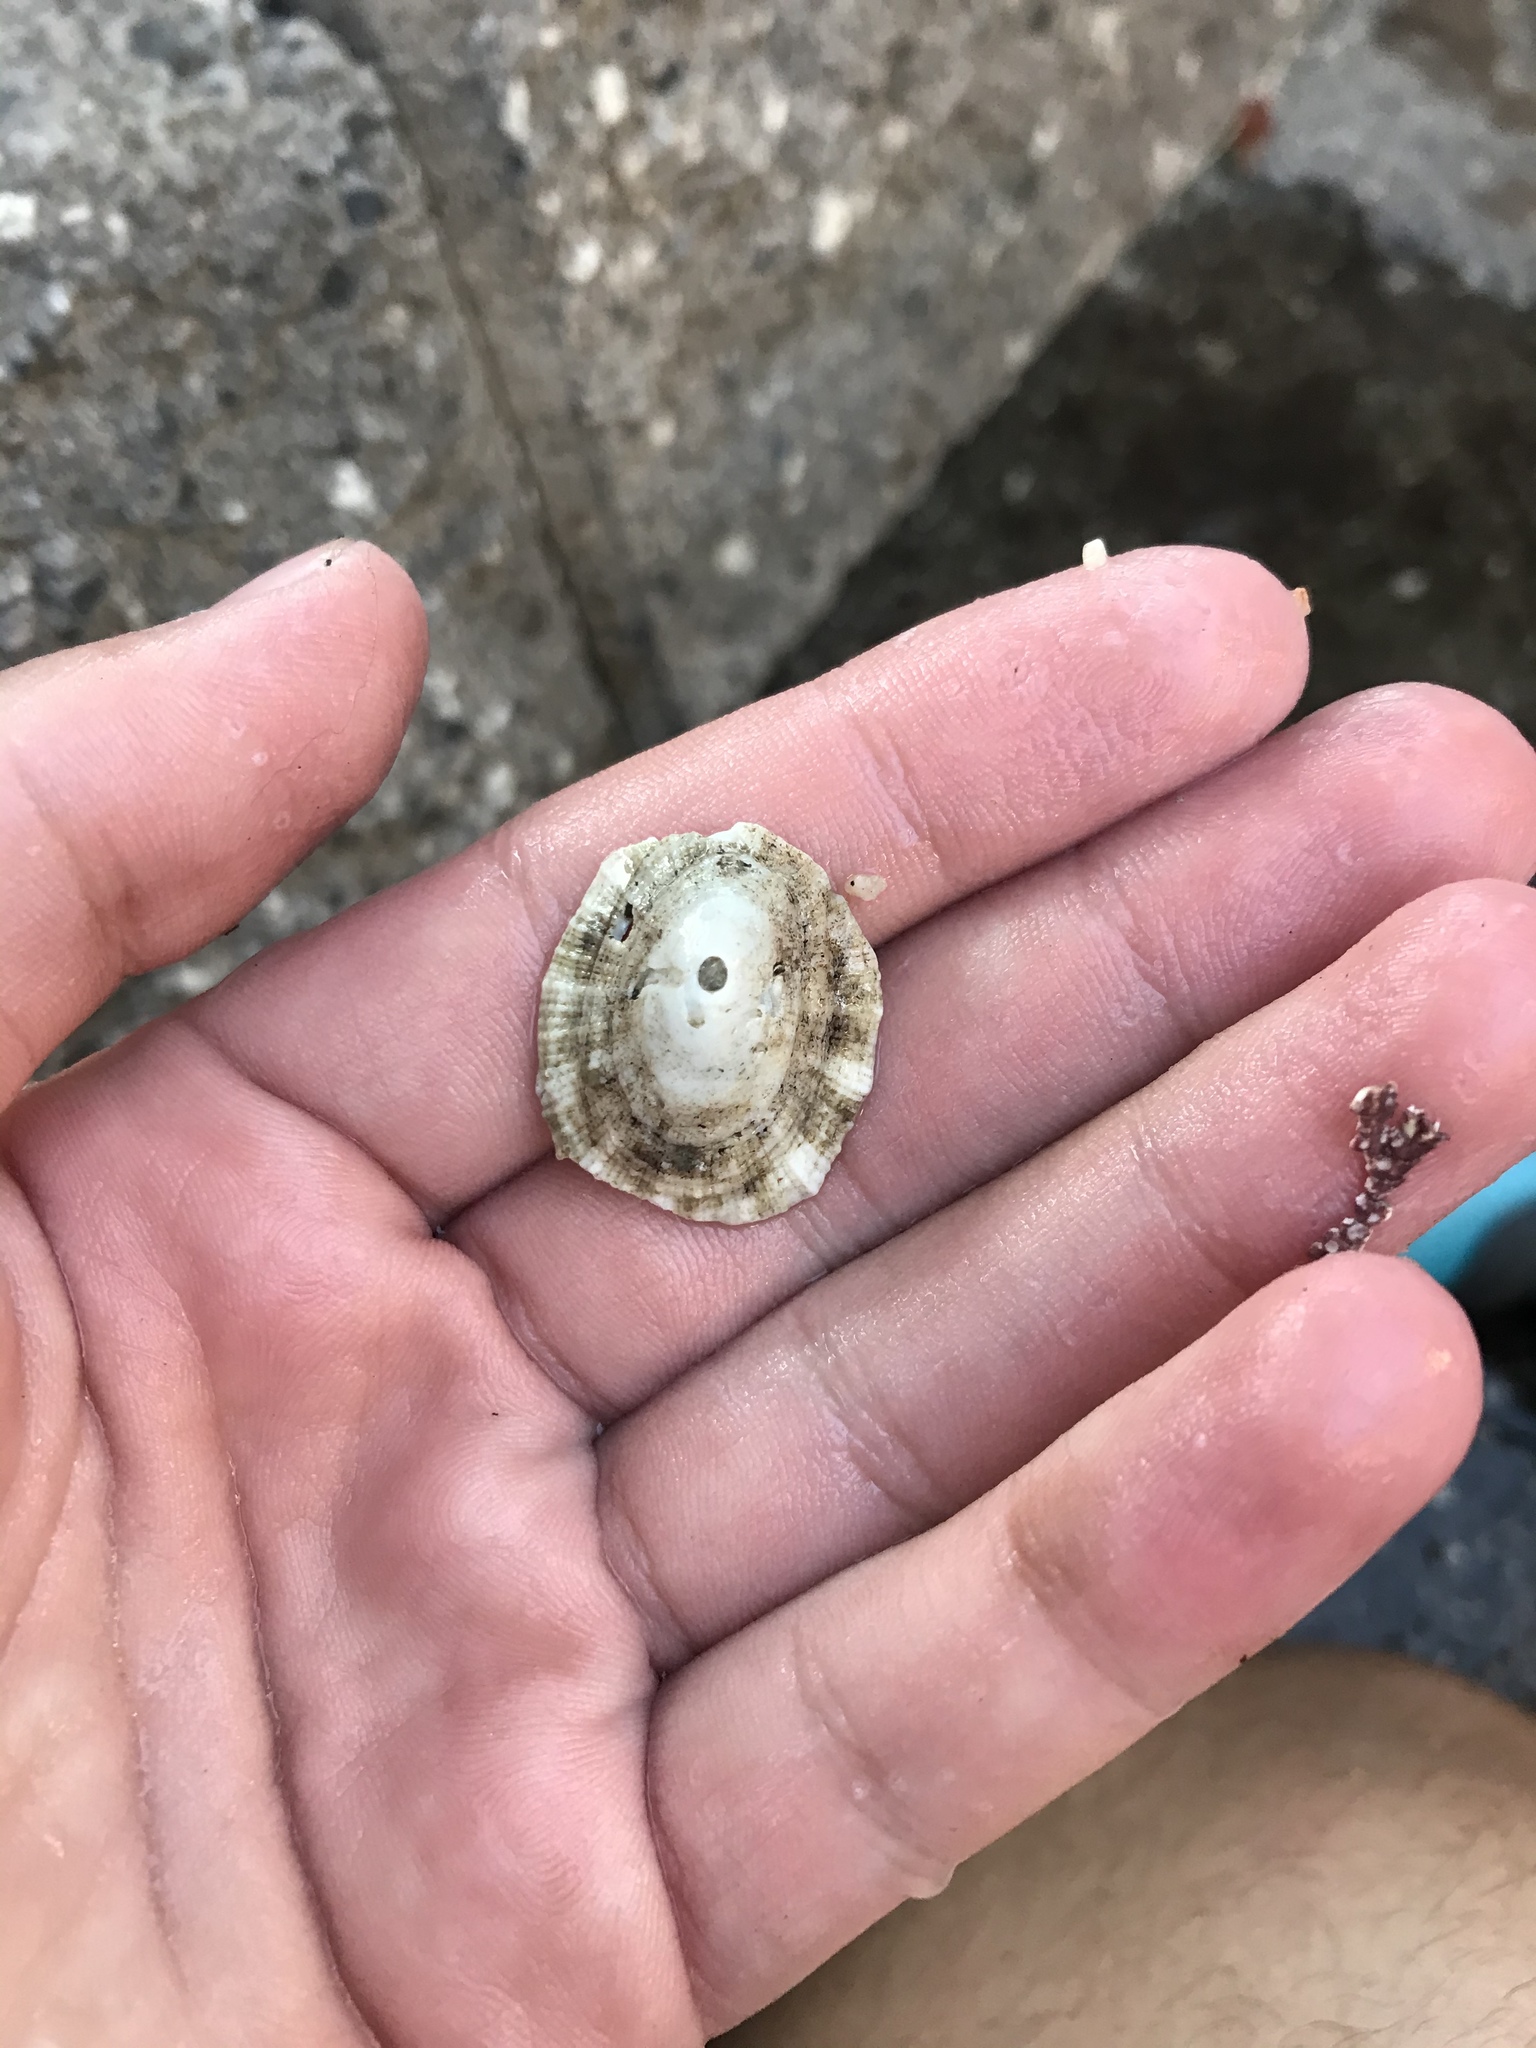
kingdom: Animalia
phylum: Mollusca
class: Gastropoda
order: Lepetellida
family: Fissurellidae
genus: Diodora
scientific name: Diodora aspera
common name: Rough keyhole limpet
